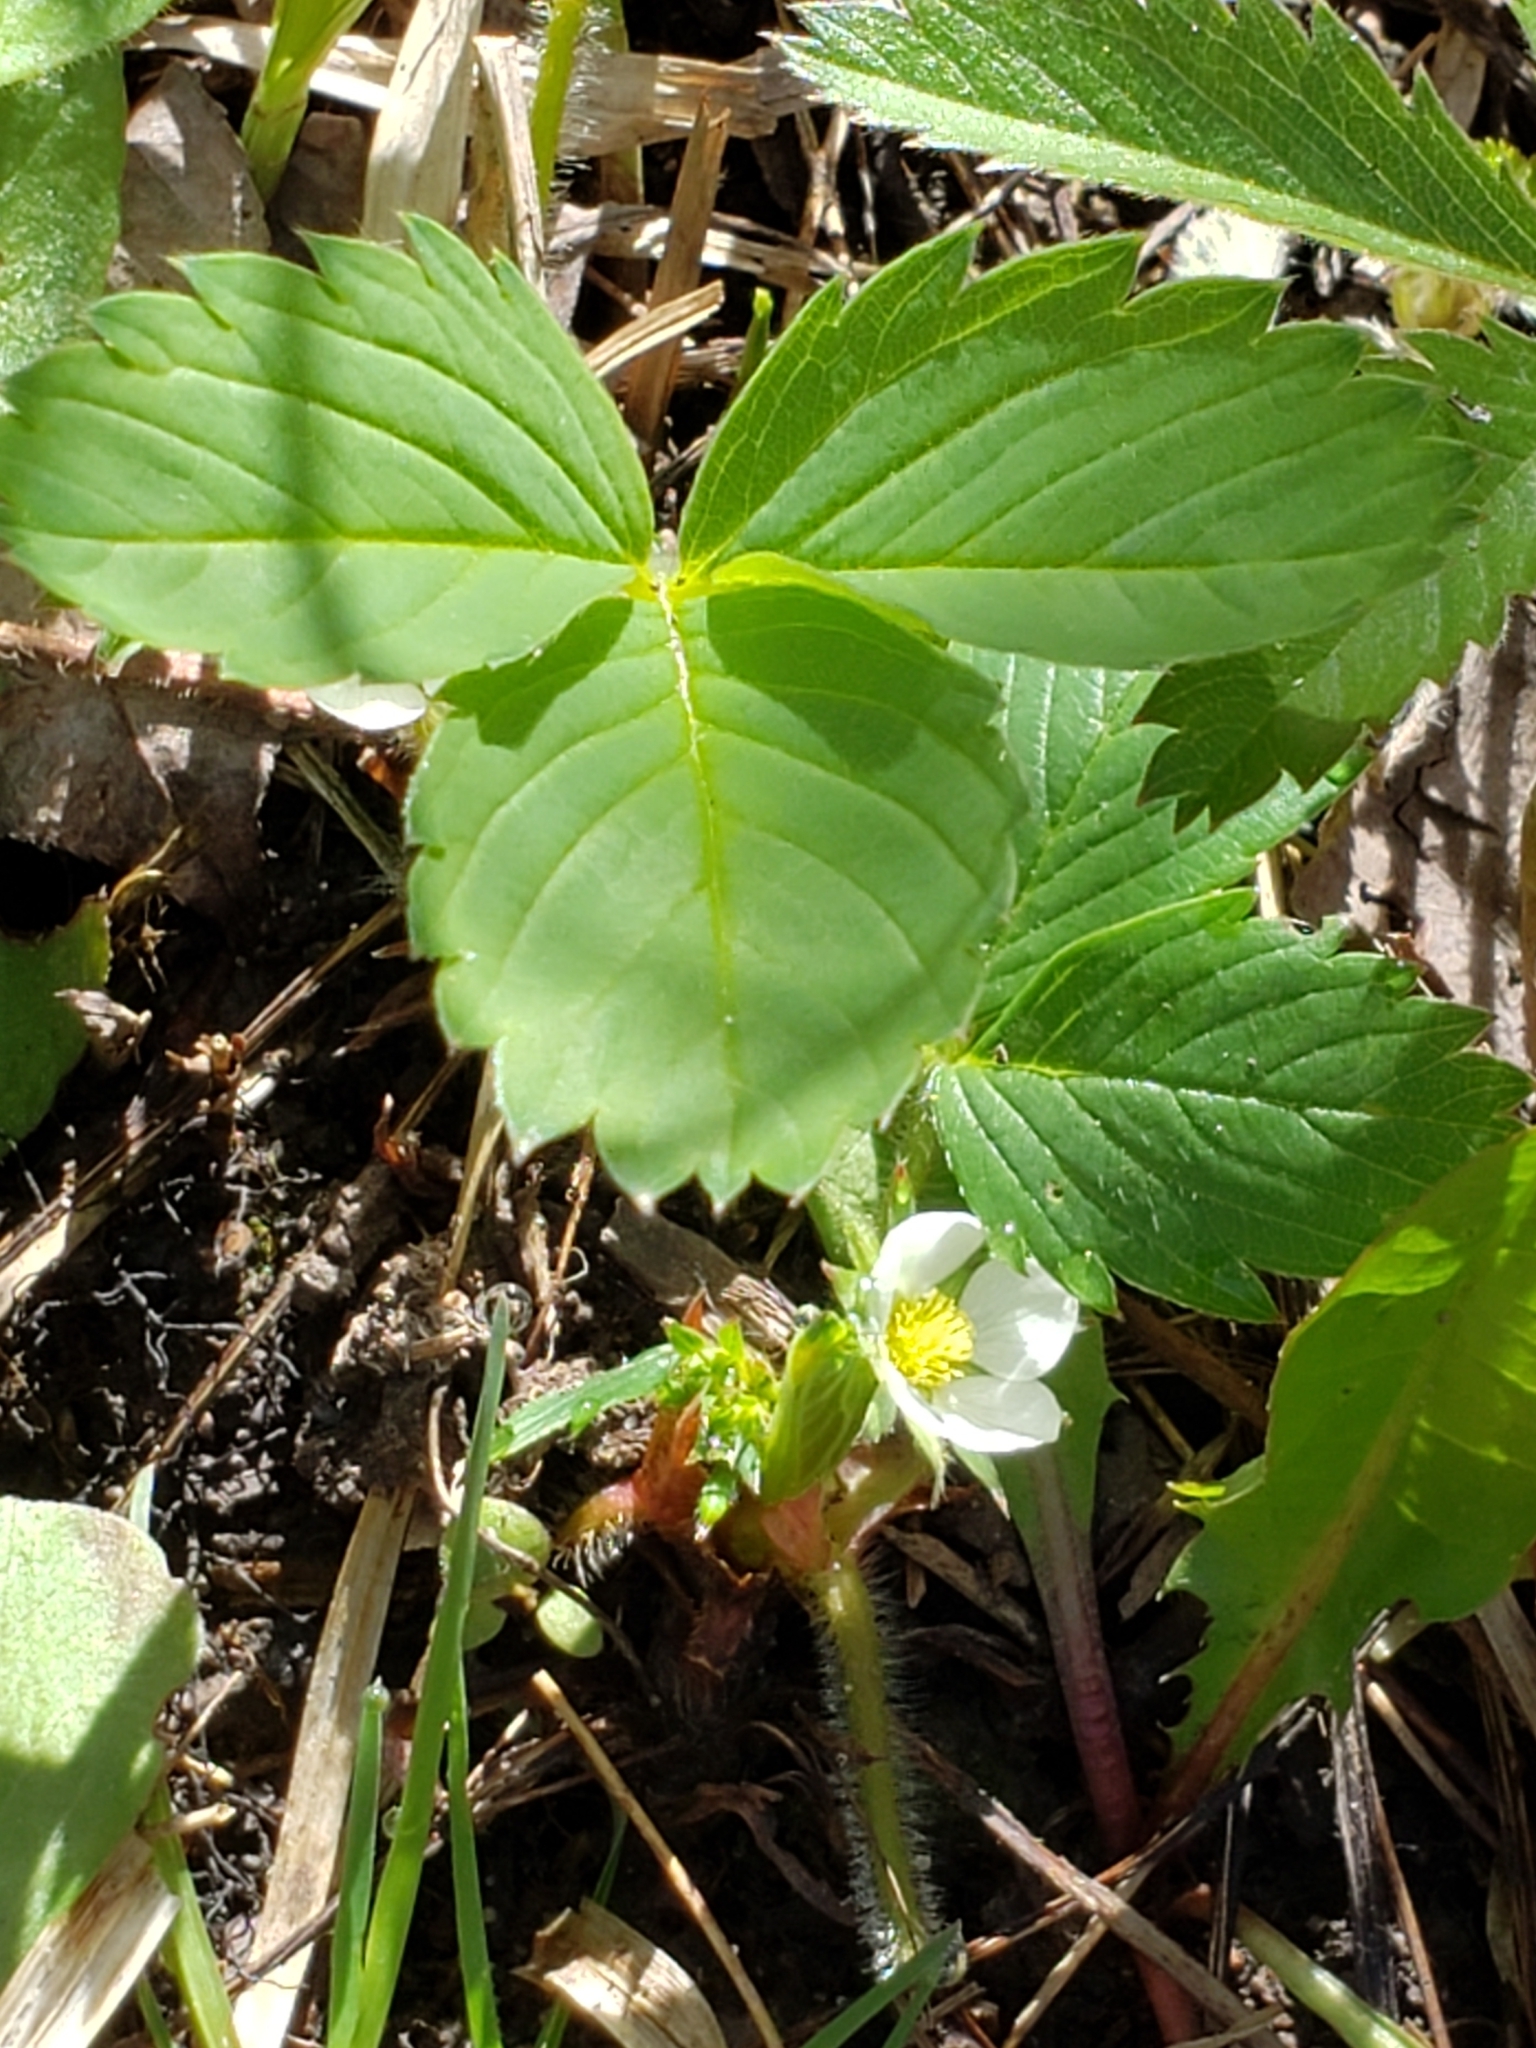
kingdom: Plantae
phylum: Tracheophyta
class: Magnoliopsida
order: Rosales
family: Rosaceae
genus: Fragaria
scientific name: Fragaria virginiana
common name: Thickleaved wild strawberry
